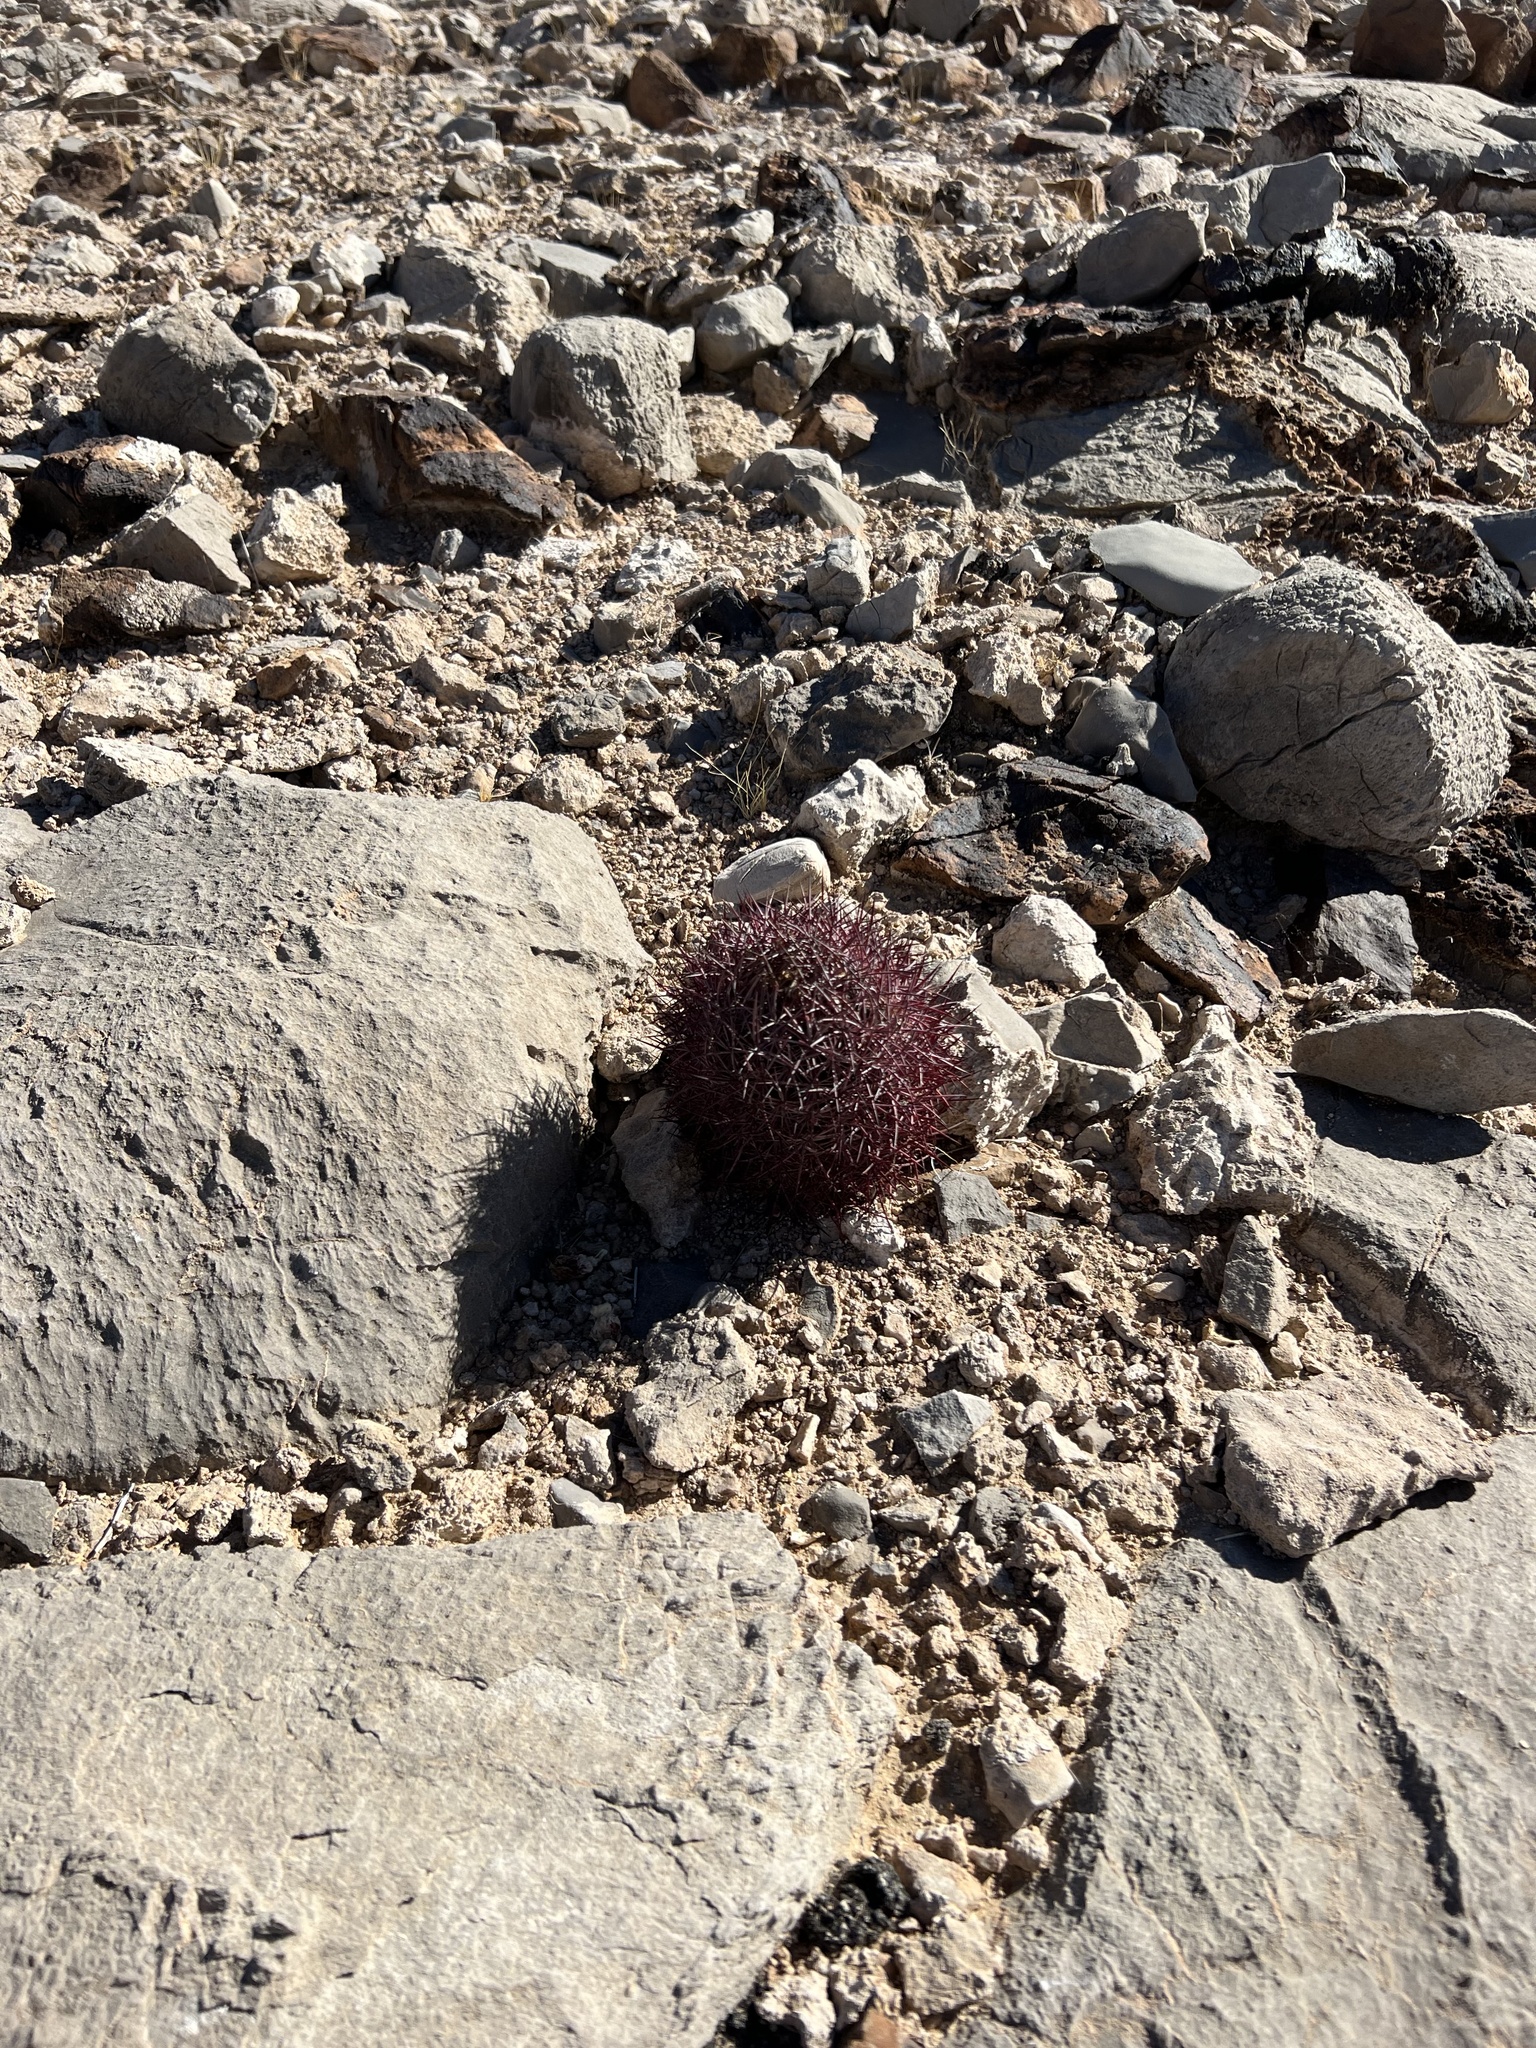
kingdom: Plantae
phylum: Tracheophyta
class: Magnoliopsida
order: Caryophyllales
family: Cactaceae
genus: Sclerocactus
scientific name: Sclerocactus johnsonii
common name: Eight-spine fishhook cactus
